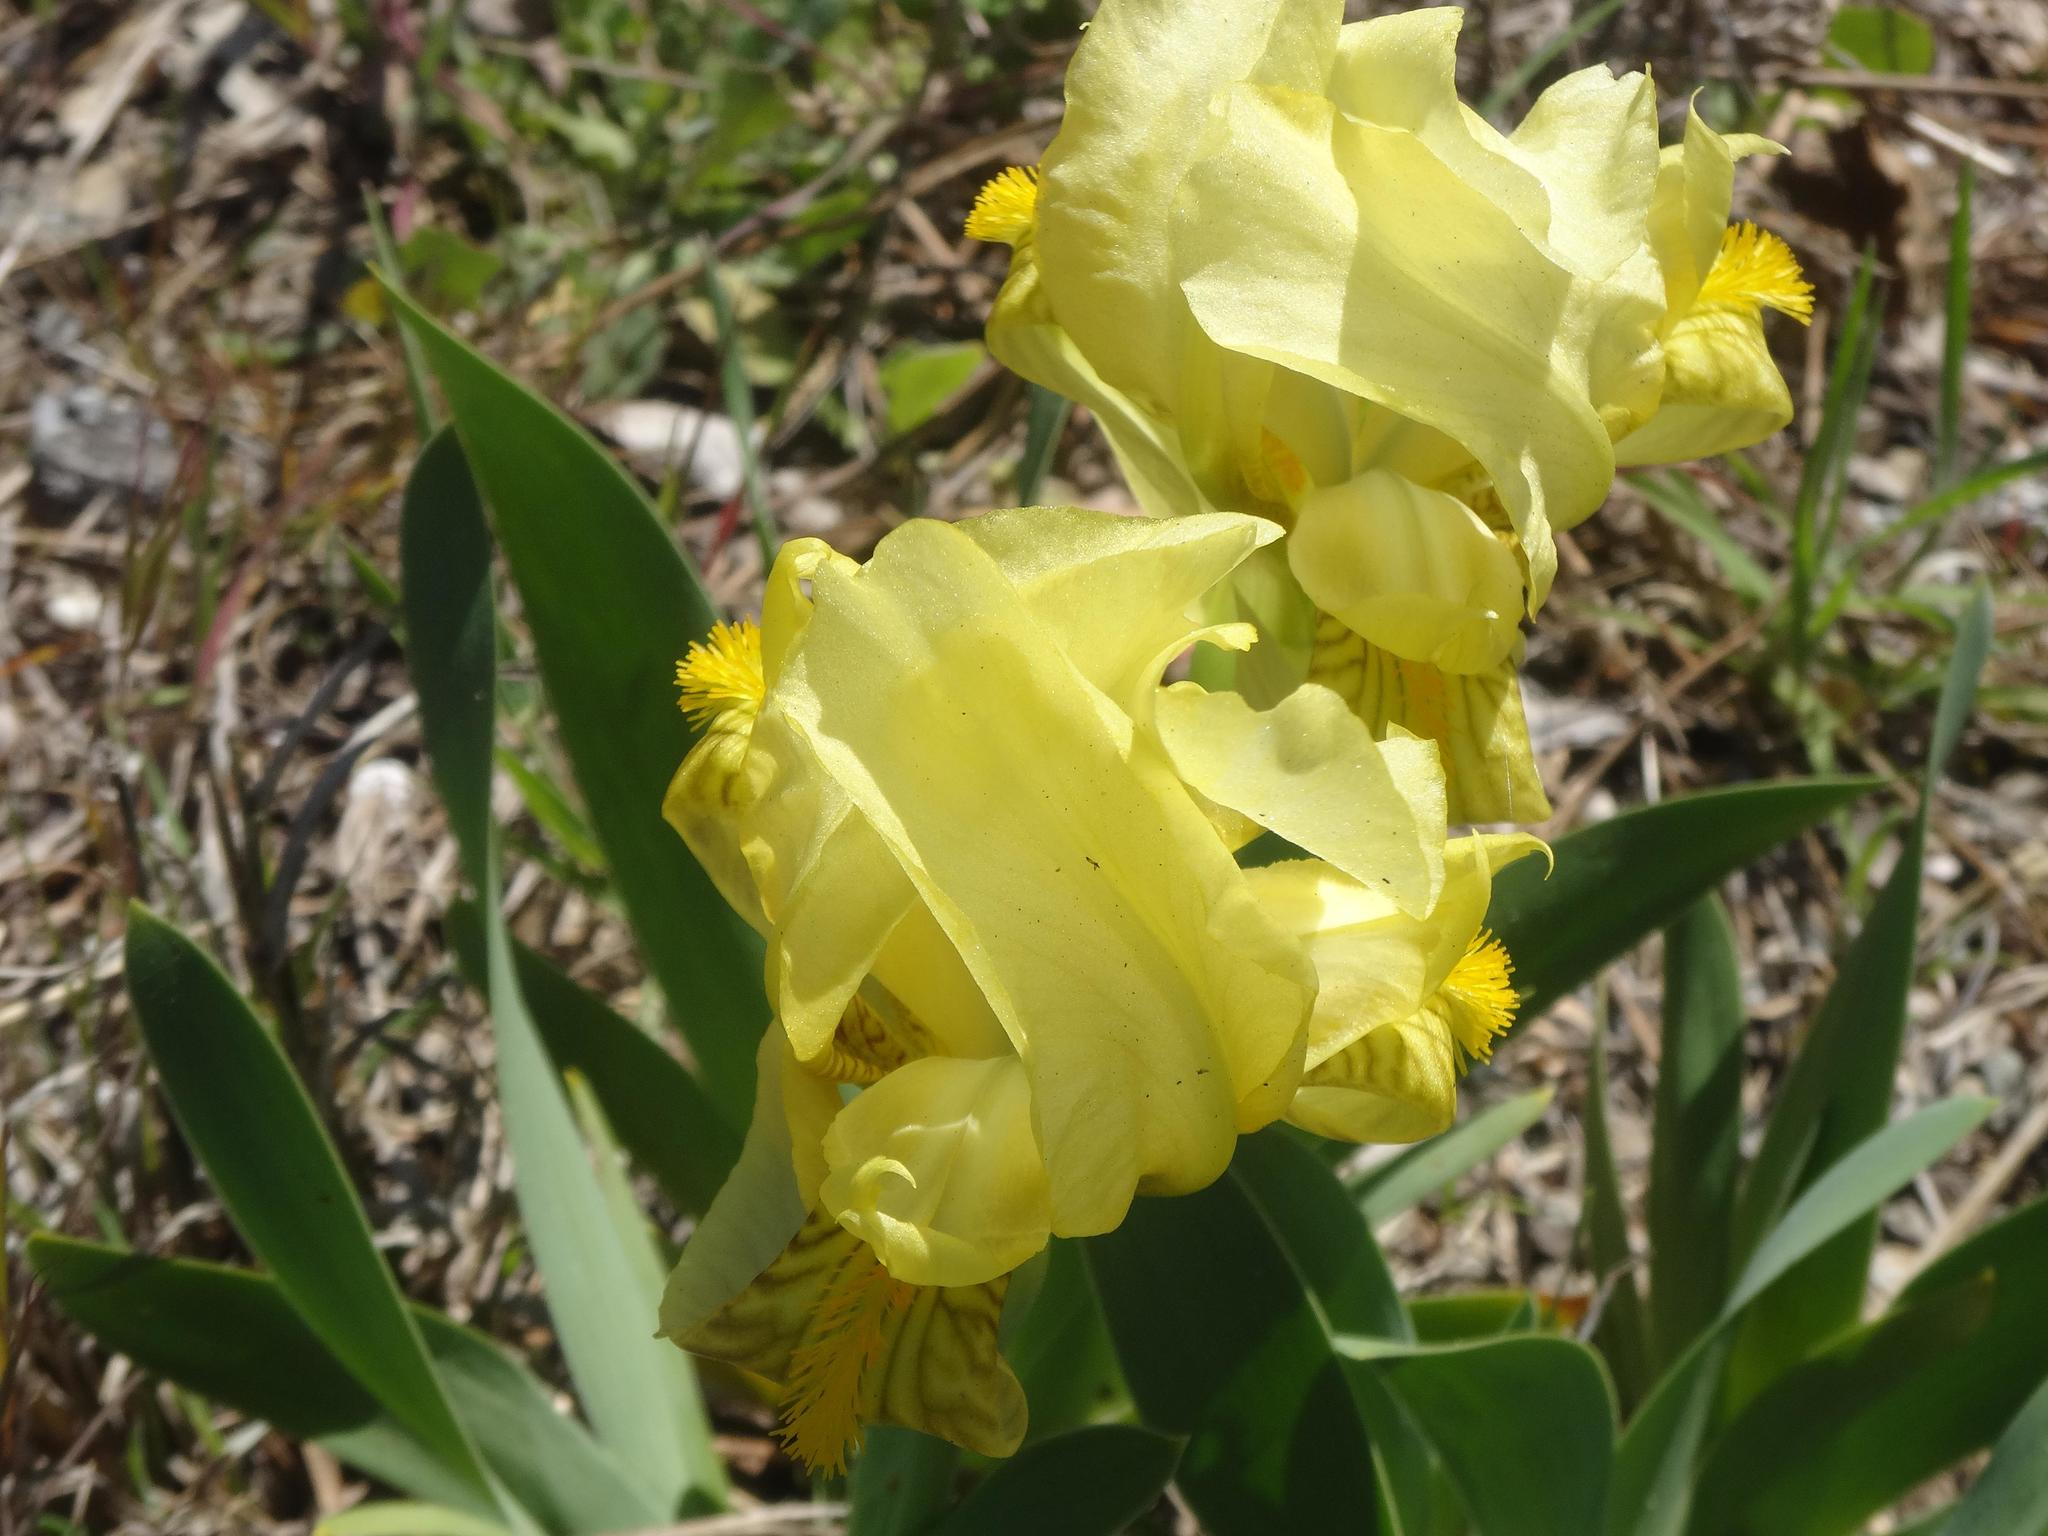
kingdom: Plantae
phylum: Tracheophyta
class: Liliopsida
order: Asparagales
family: Iridaceae
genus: Iris
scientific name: Iris lutescens
